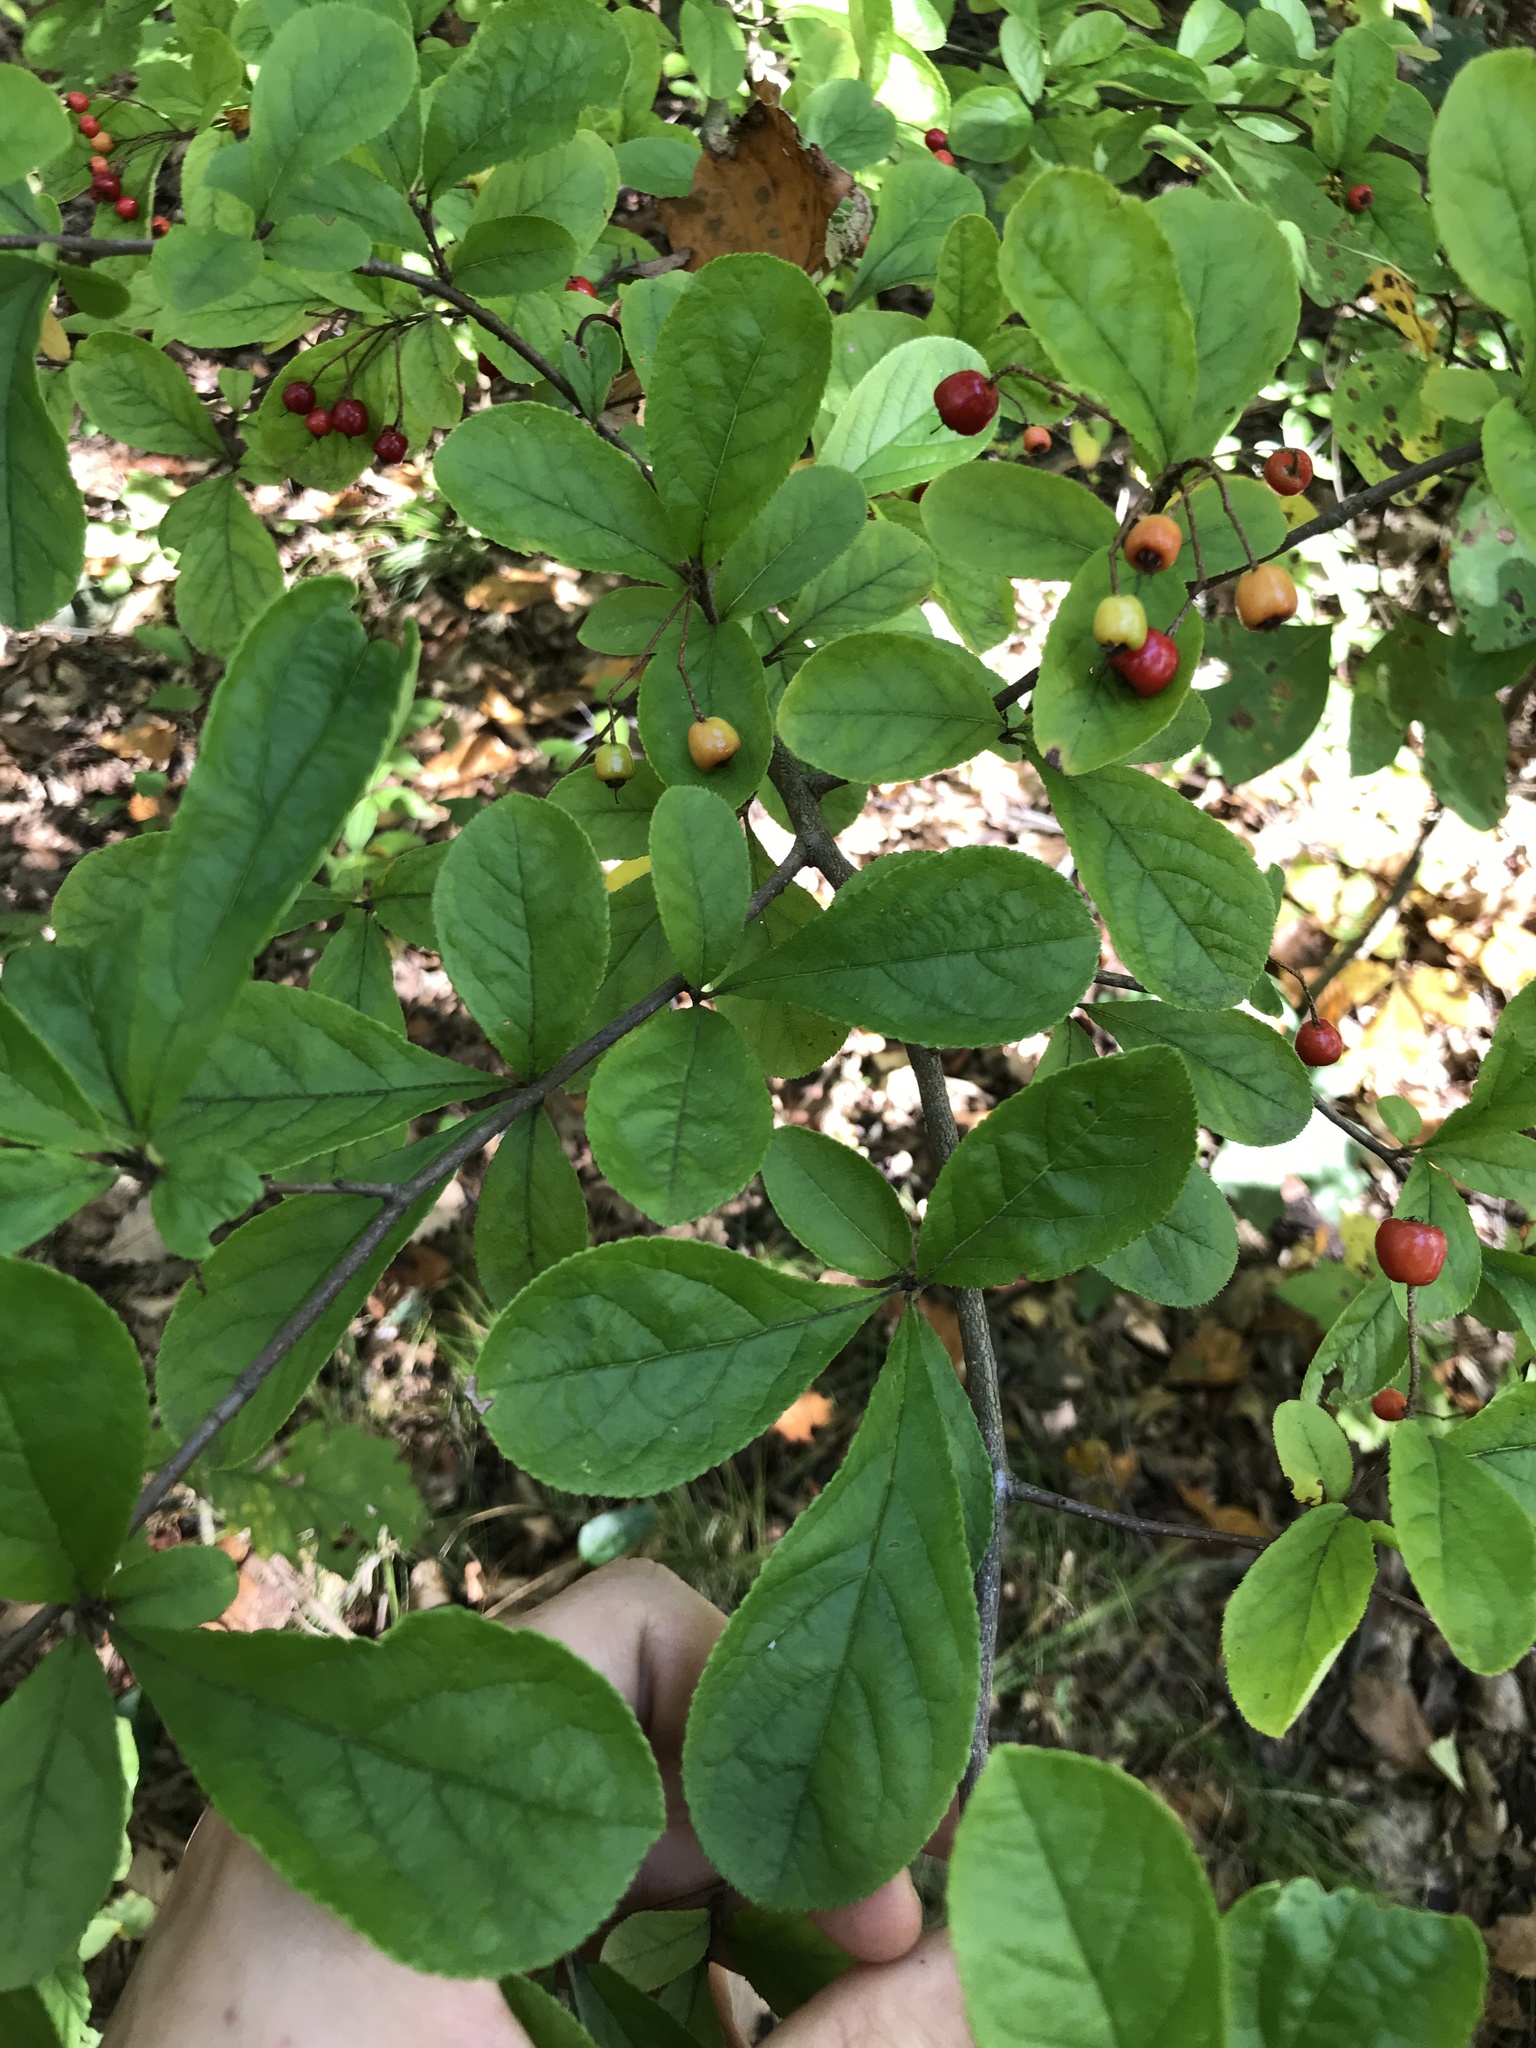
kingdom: Plantae
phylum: Tracheophyta
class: Magnoliopsida
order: Rosales
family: Rosaceae
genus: Pourthiaea
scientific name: Pourthiaea villosa
